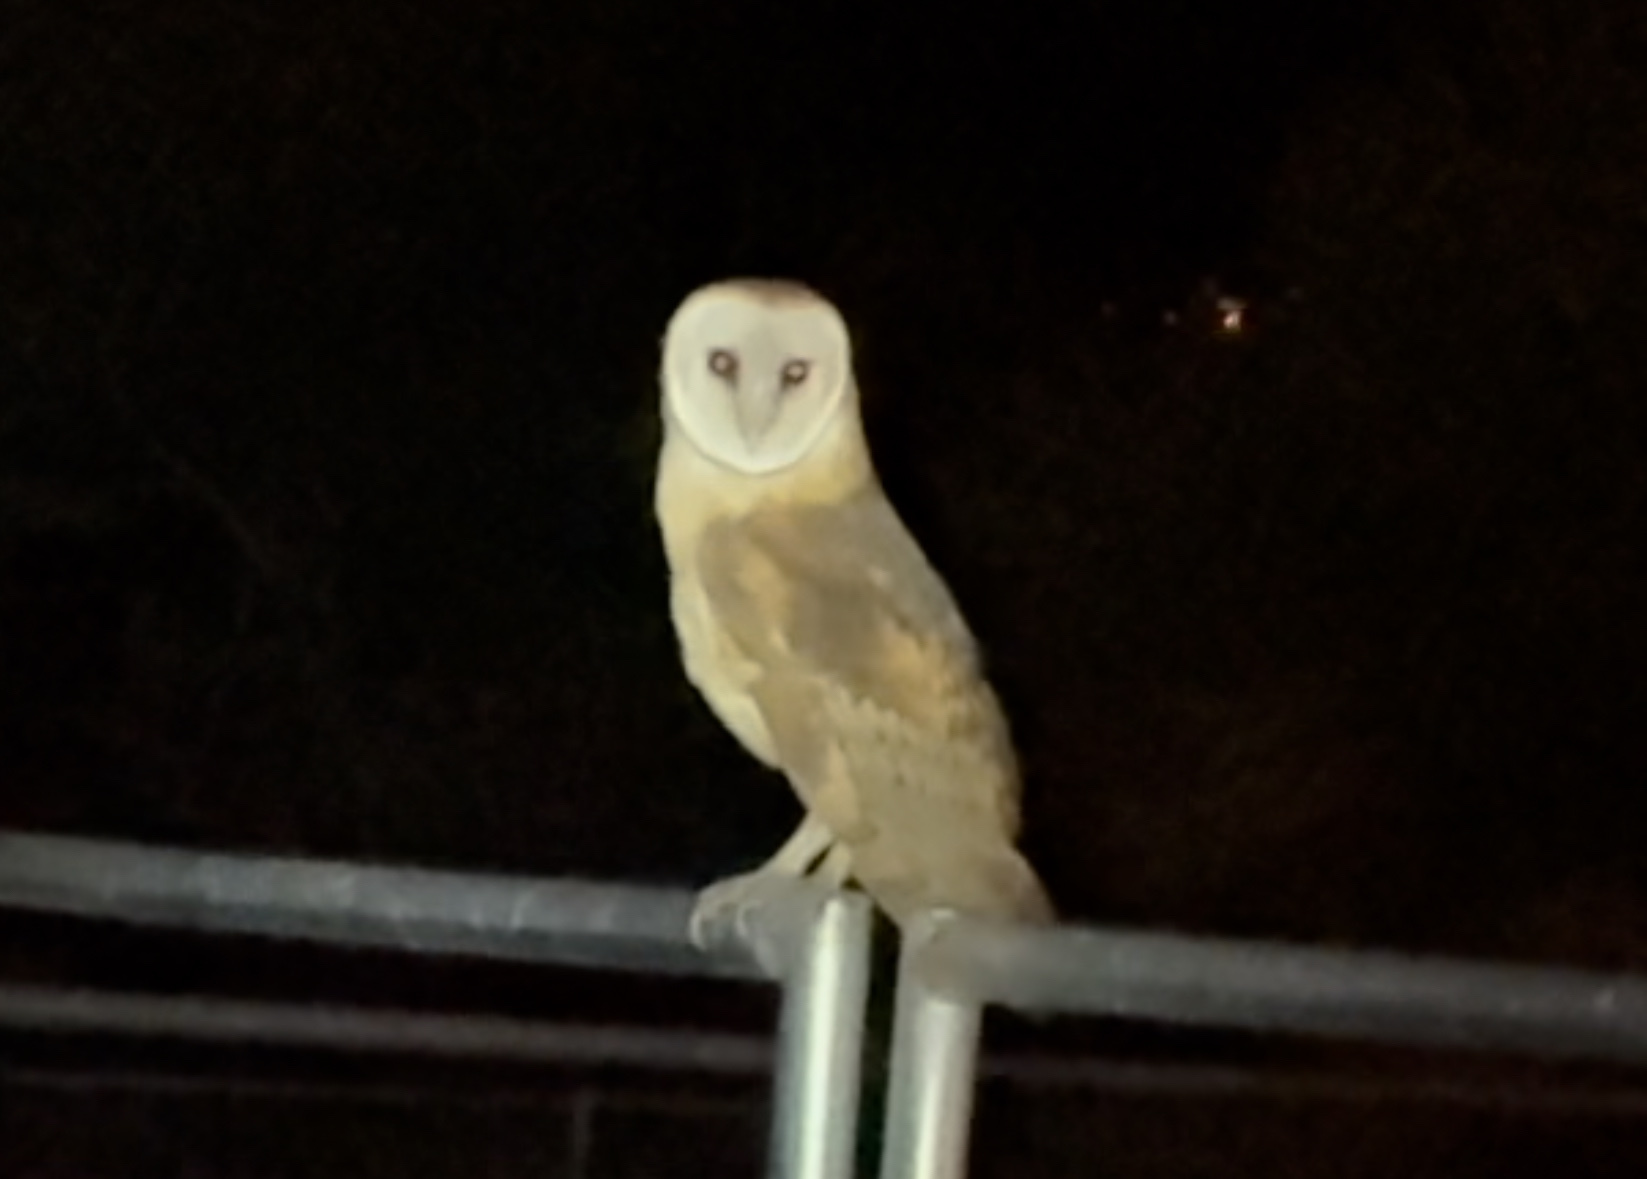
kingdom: Animalia
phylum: Chordata
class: Aves
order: Strigiformes
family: Tytonidae
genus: Tyto
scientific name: Tyto alba
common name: Barn owl
